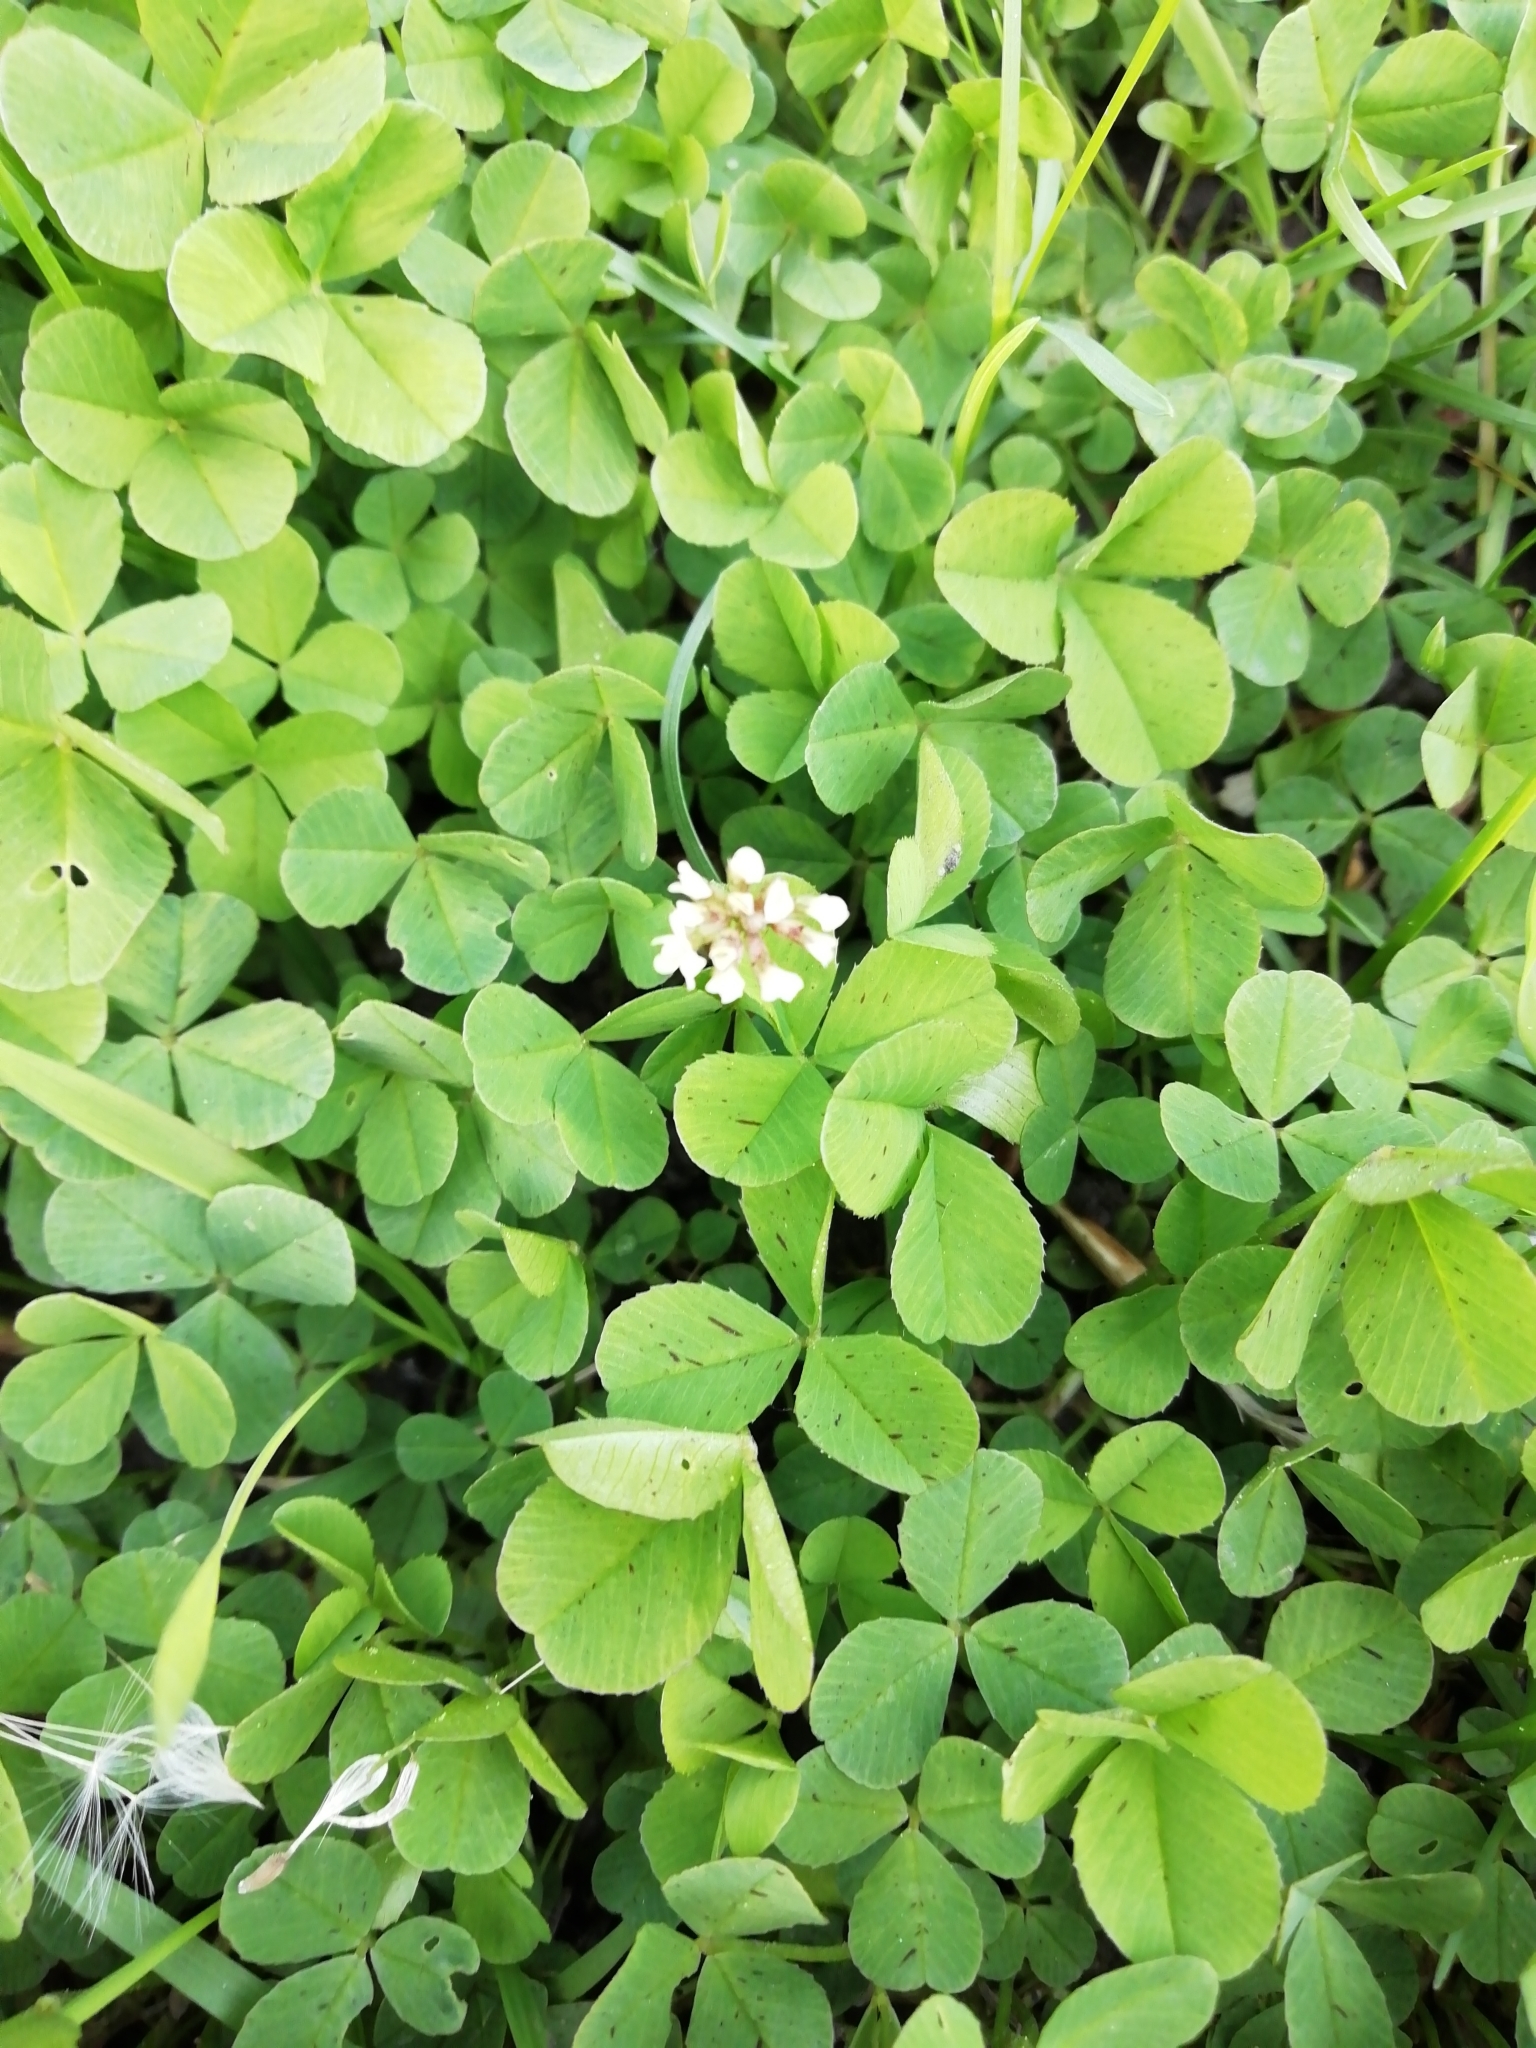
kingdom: Plantae
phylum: Tracheophyta
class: Magnoliopsida
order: Fabales
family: Fabaceae
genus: Trifolium
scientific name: Trifolium repens
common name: White clover
